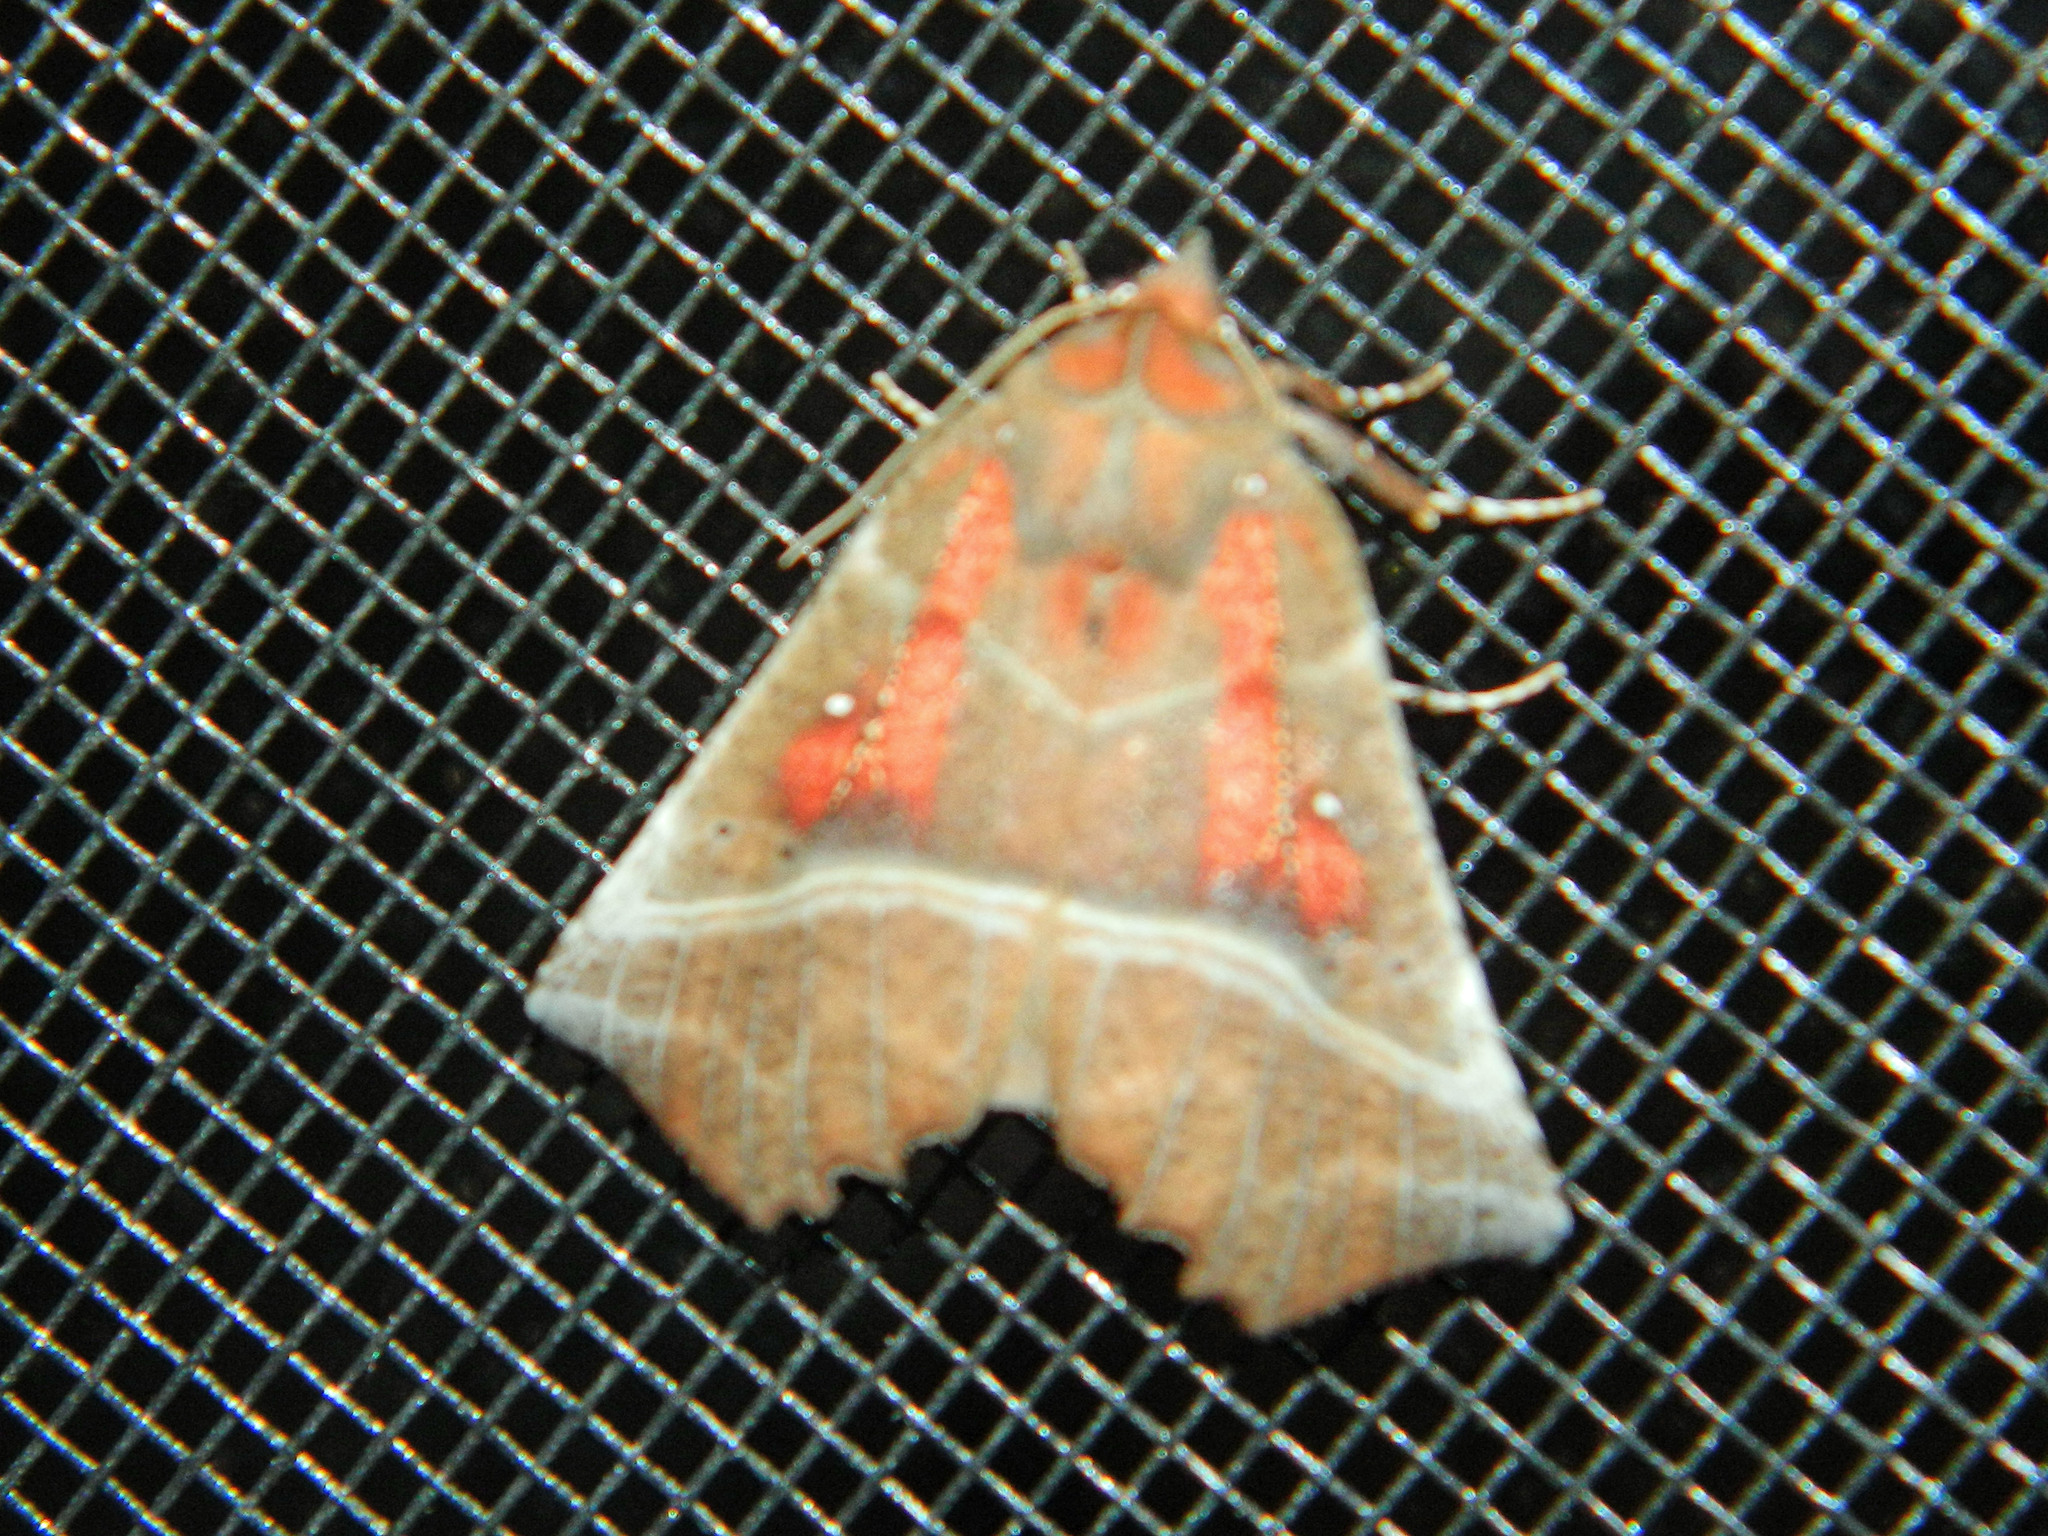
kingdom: Animalia
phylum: Arthropoda
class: Insecta
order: Lepidoptera
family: Erebidae
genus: Scoliopteryx
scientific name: Scoliopteryx libatrix
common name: Herald
